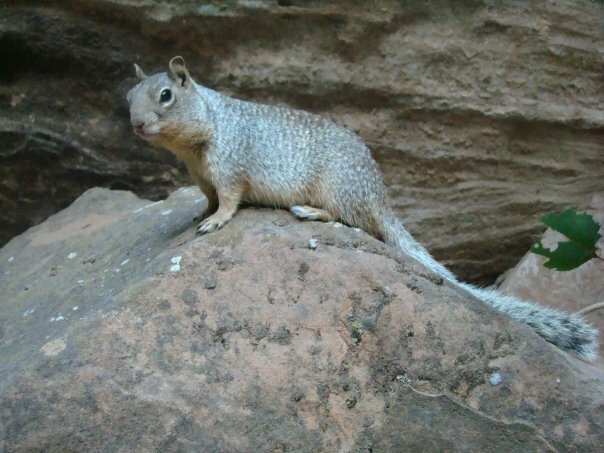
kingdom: Animalia
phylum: Chordata
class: Mammalia
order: Rodentia
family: Sciuridae
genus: Otospermophilus
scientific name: Otospermophilus variegatus
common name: Rock squirrel
